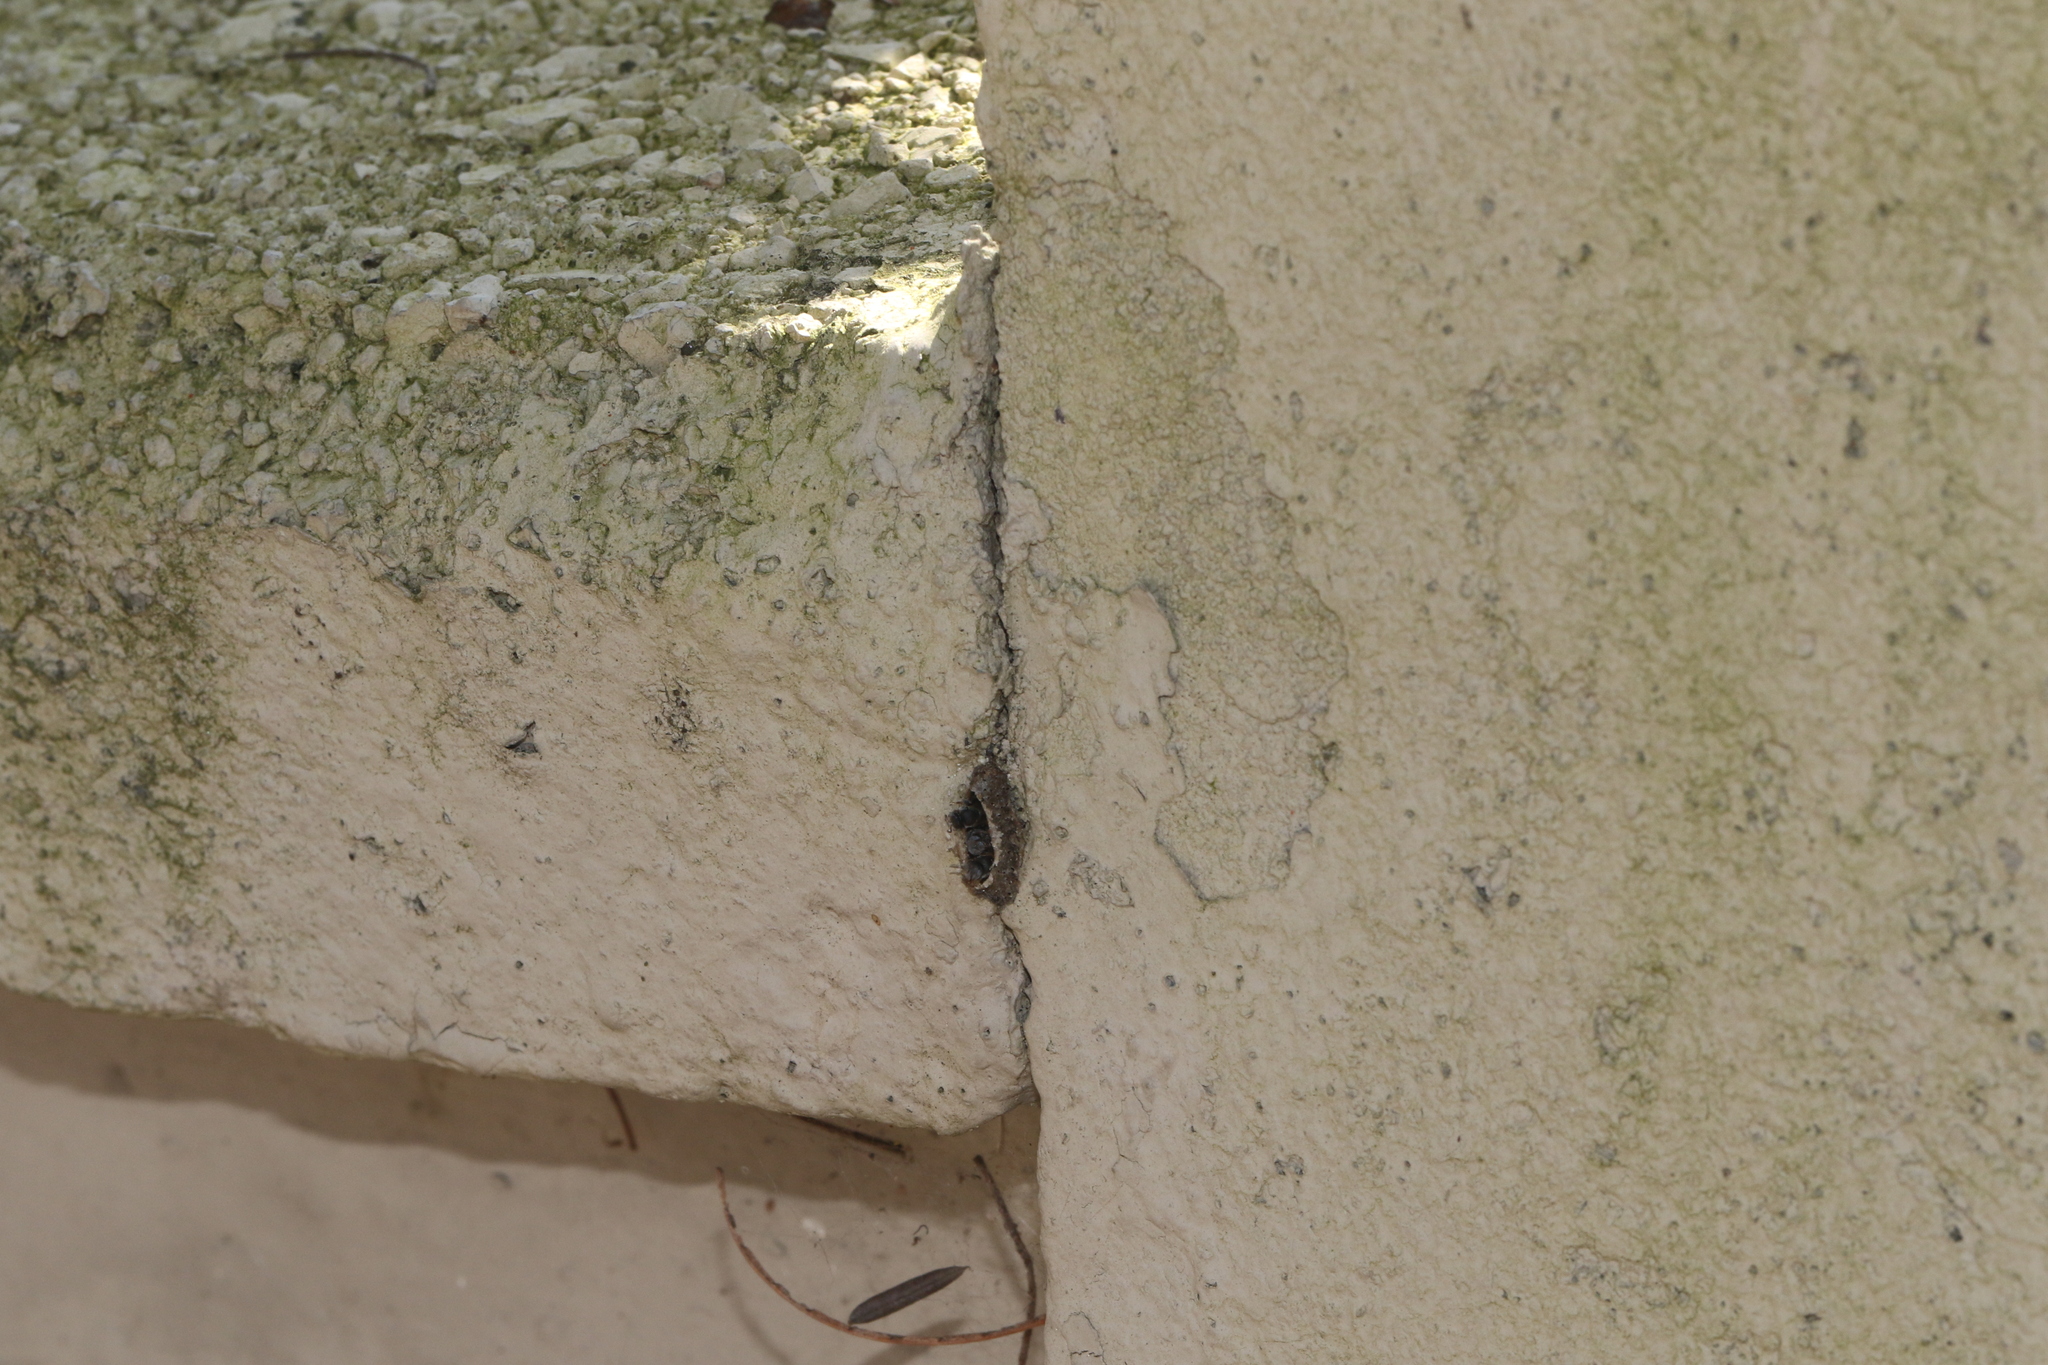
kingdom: Animalia
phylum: Arthropoda
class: Insecta
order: Hymenoptera
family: Apidae
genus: Friesella
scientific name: Friesella schrottkyi
